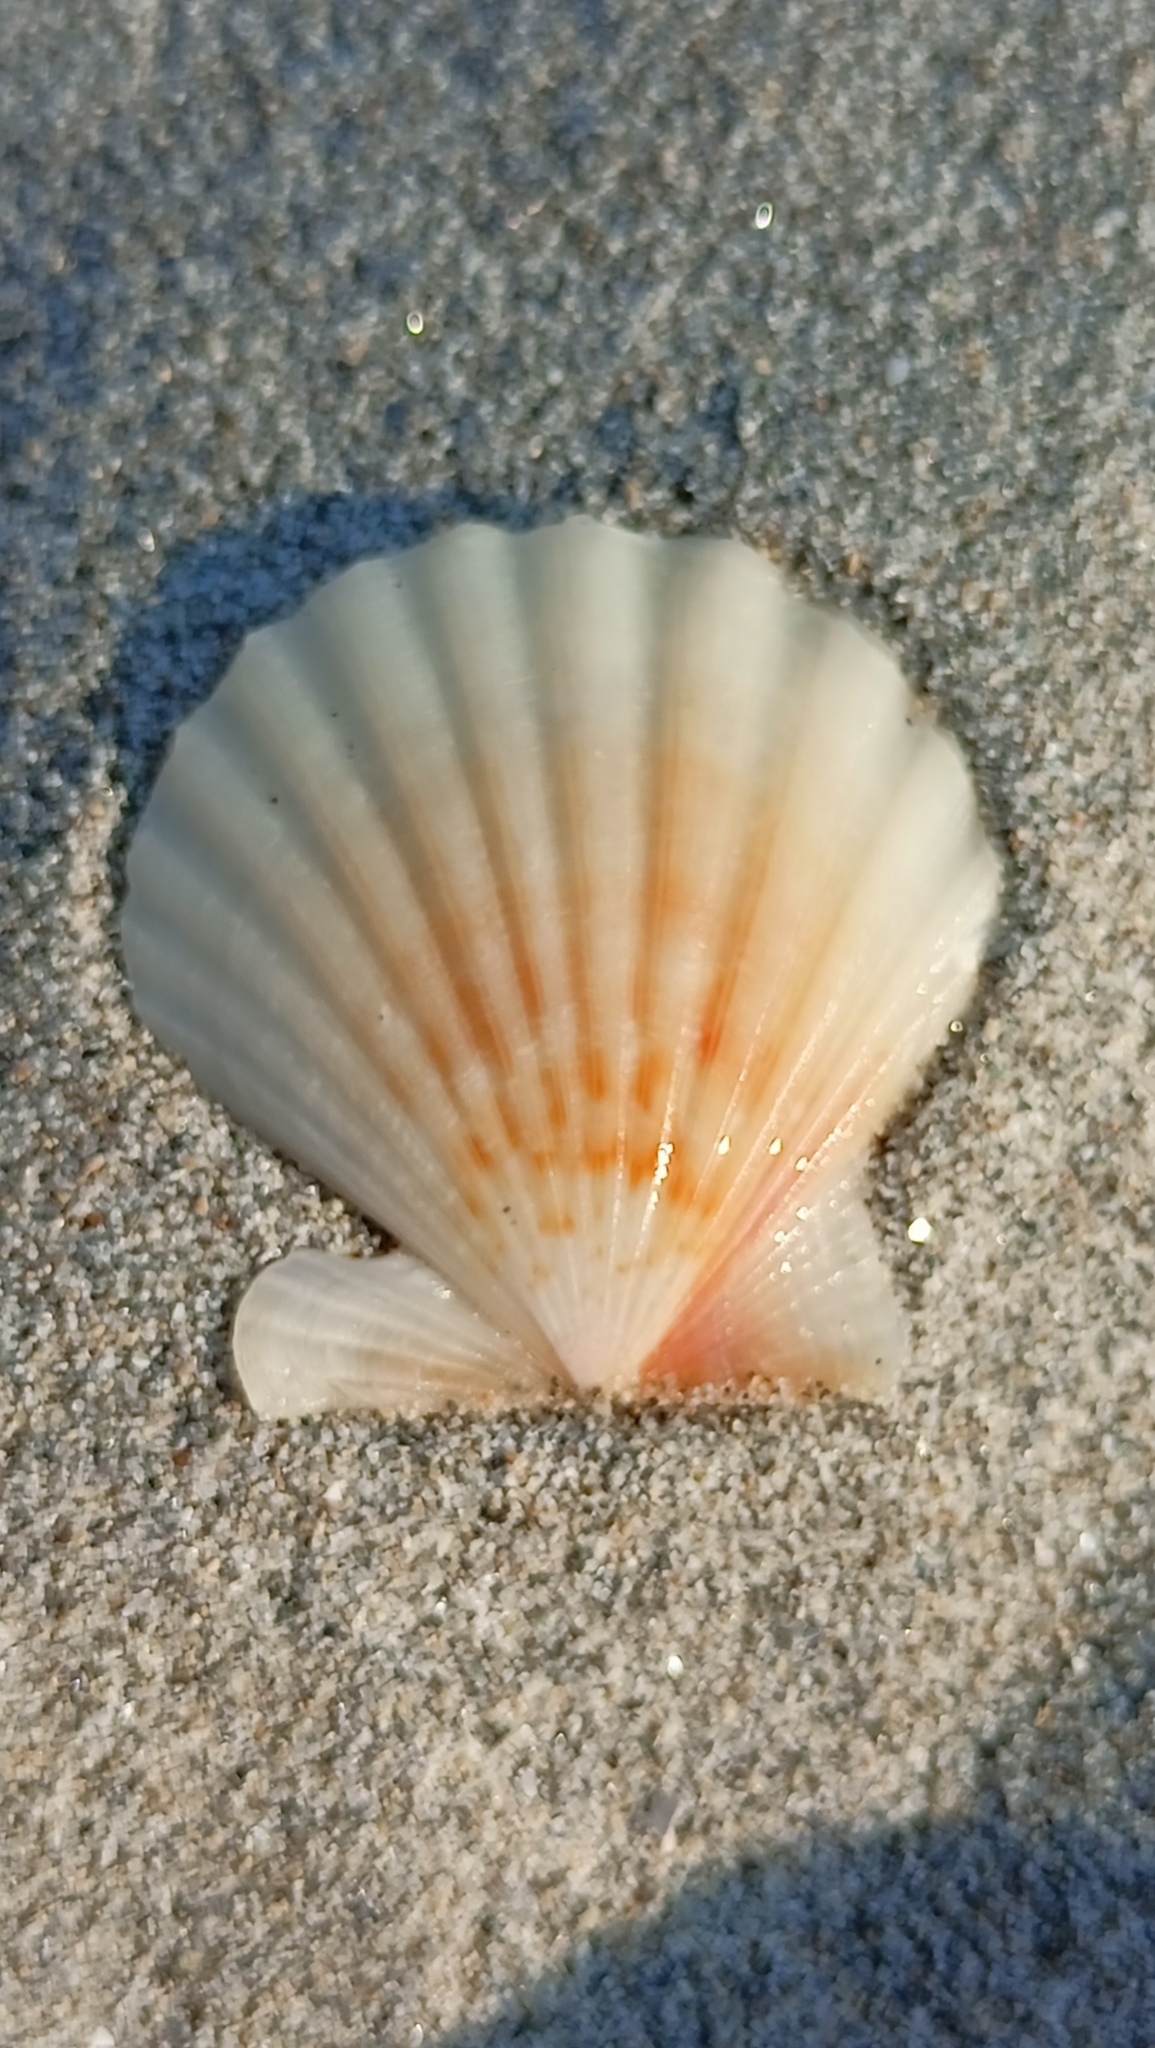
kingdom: Animalia
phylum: Mollusca
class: Bivalvia
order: Pectinida
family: Pectinidae
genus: Flexopecten
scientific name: Flexopecten glaber
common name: Smooth scallop
